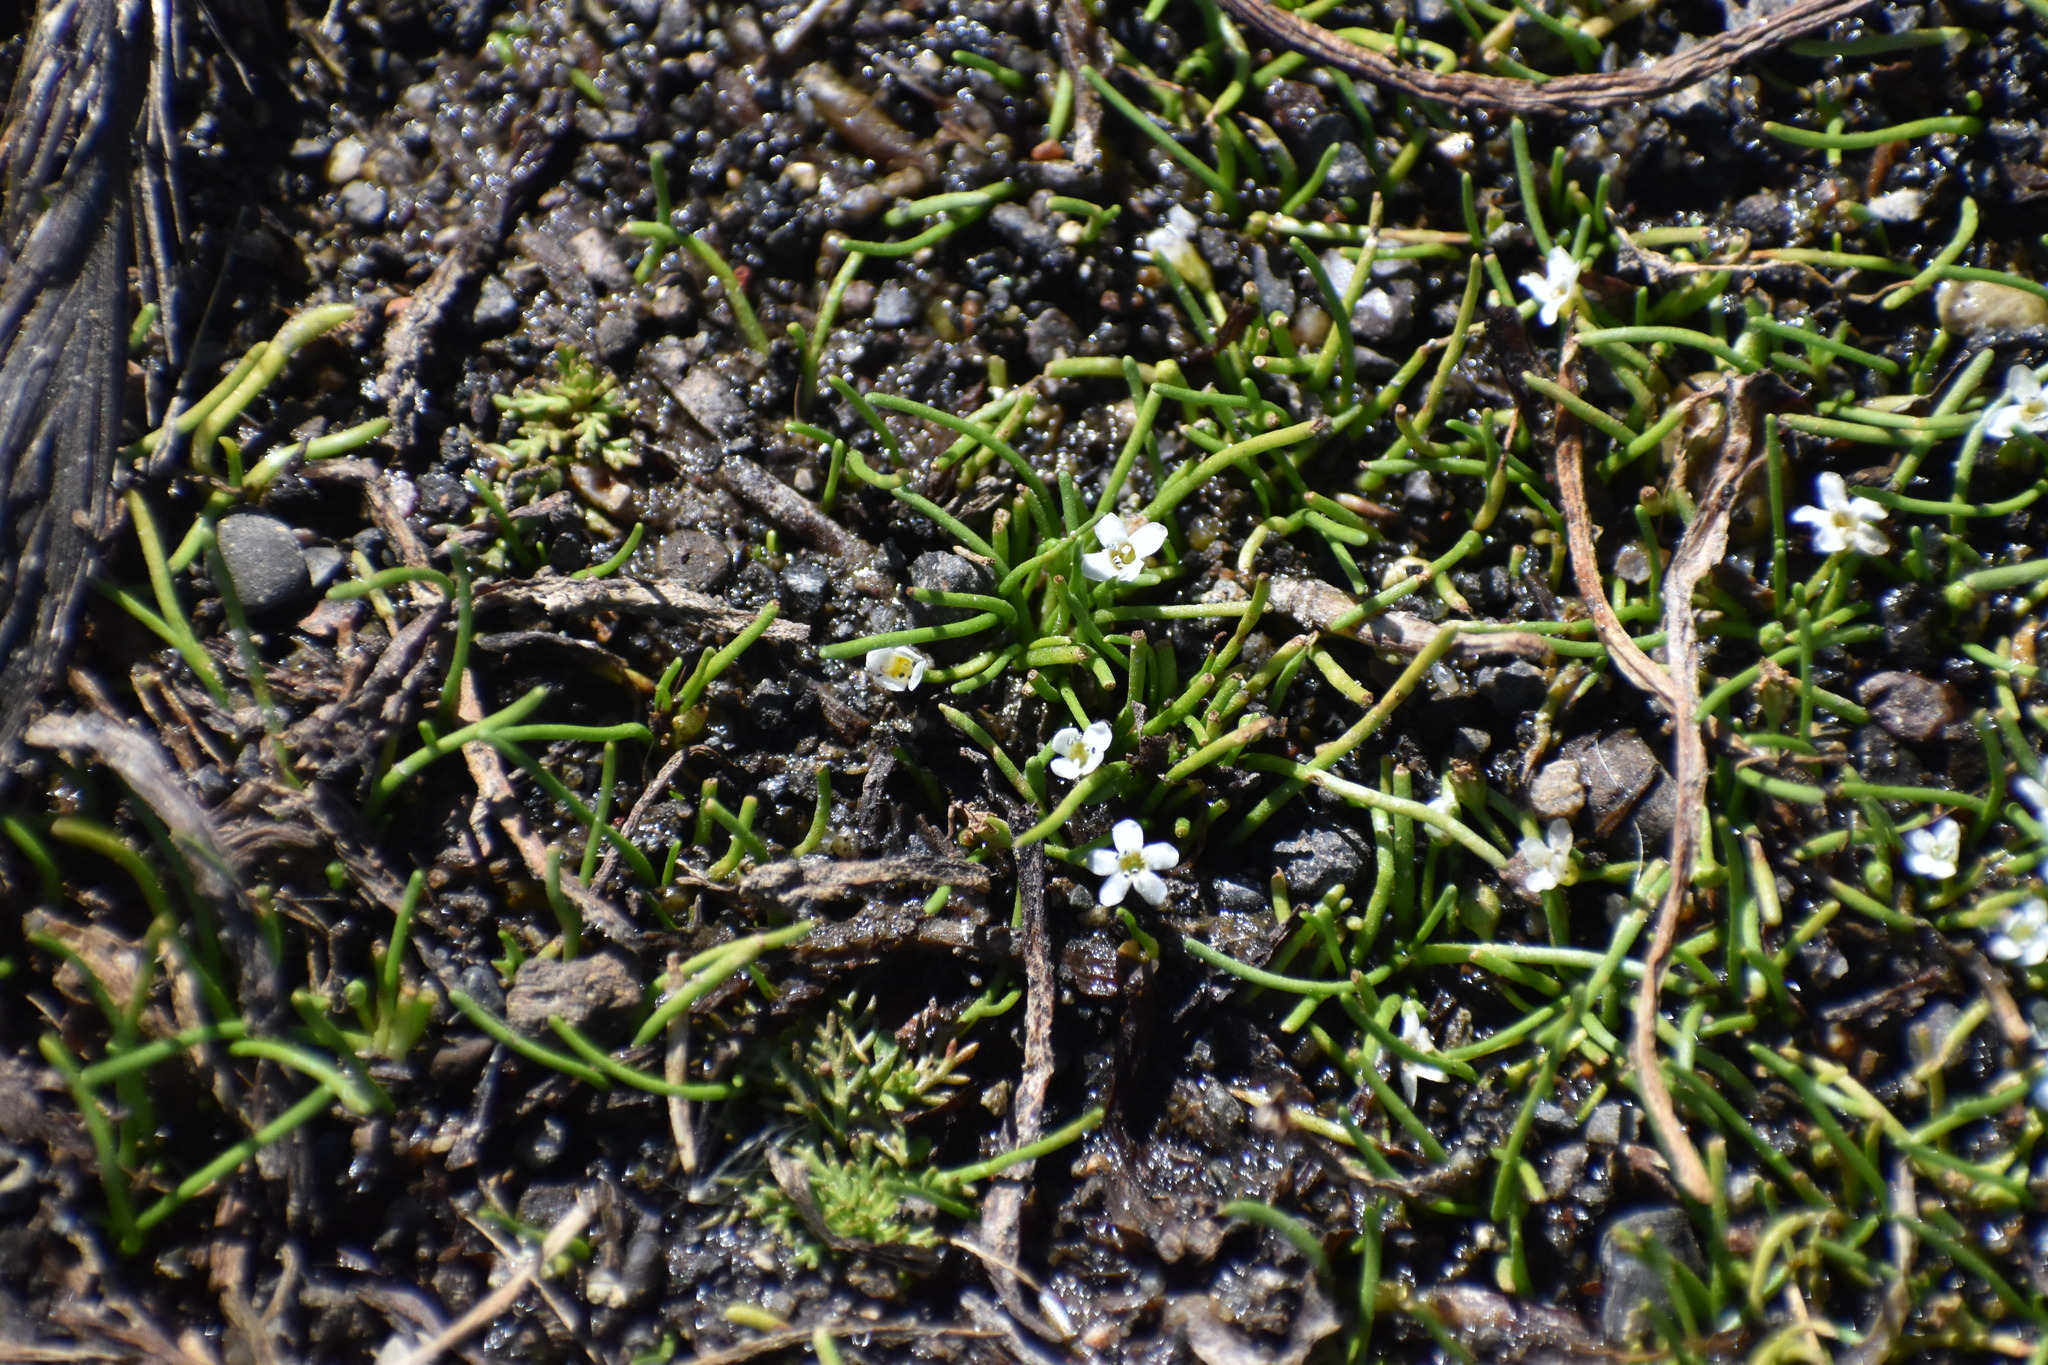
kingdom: Plantae
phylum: Tracheophyta
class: Magnoliopsida
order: Lamiales
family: Scrophulariaceae
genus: Limosella
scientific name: Limosella australis
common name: Welsh mudwort
